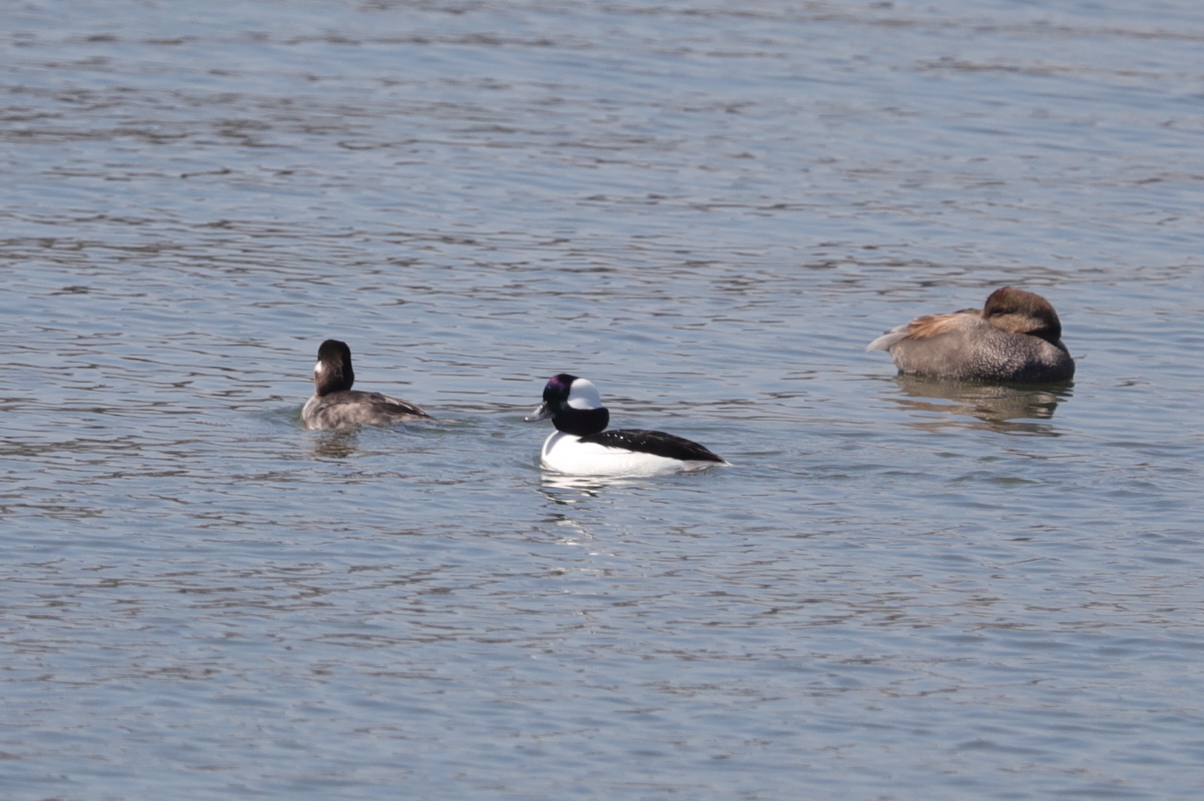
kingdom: Animalia
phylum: Chordata
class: Aves
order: Anseriformes
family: Anatidae
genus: Bucephala
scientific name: Bucephala albeola
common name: Bufflehead
